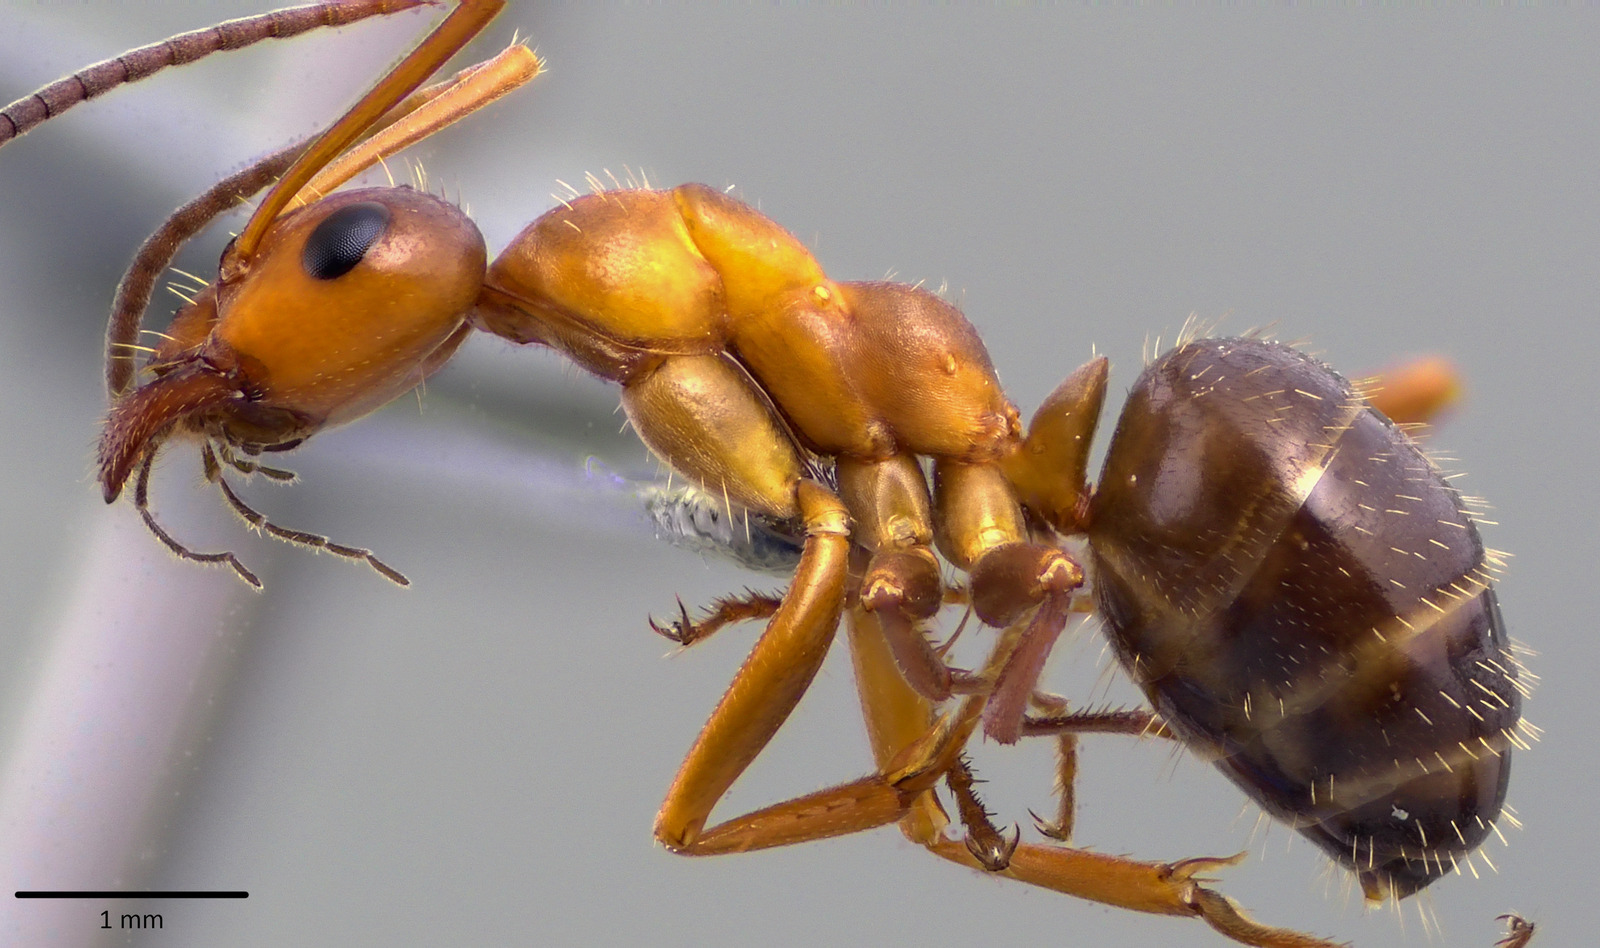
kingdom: Animalia
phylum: Arthropoda
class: Insecta
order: Hymenoptera
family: Formicidae
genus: Formica
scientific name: Formica incerta
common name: Uncertain field ant
